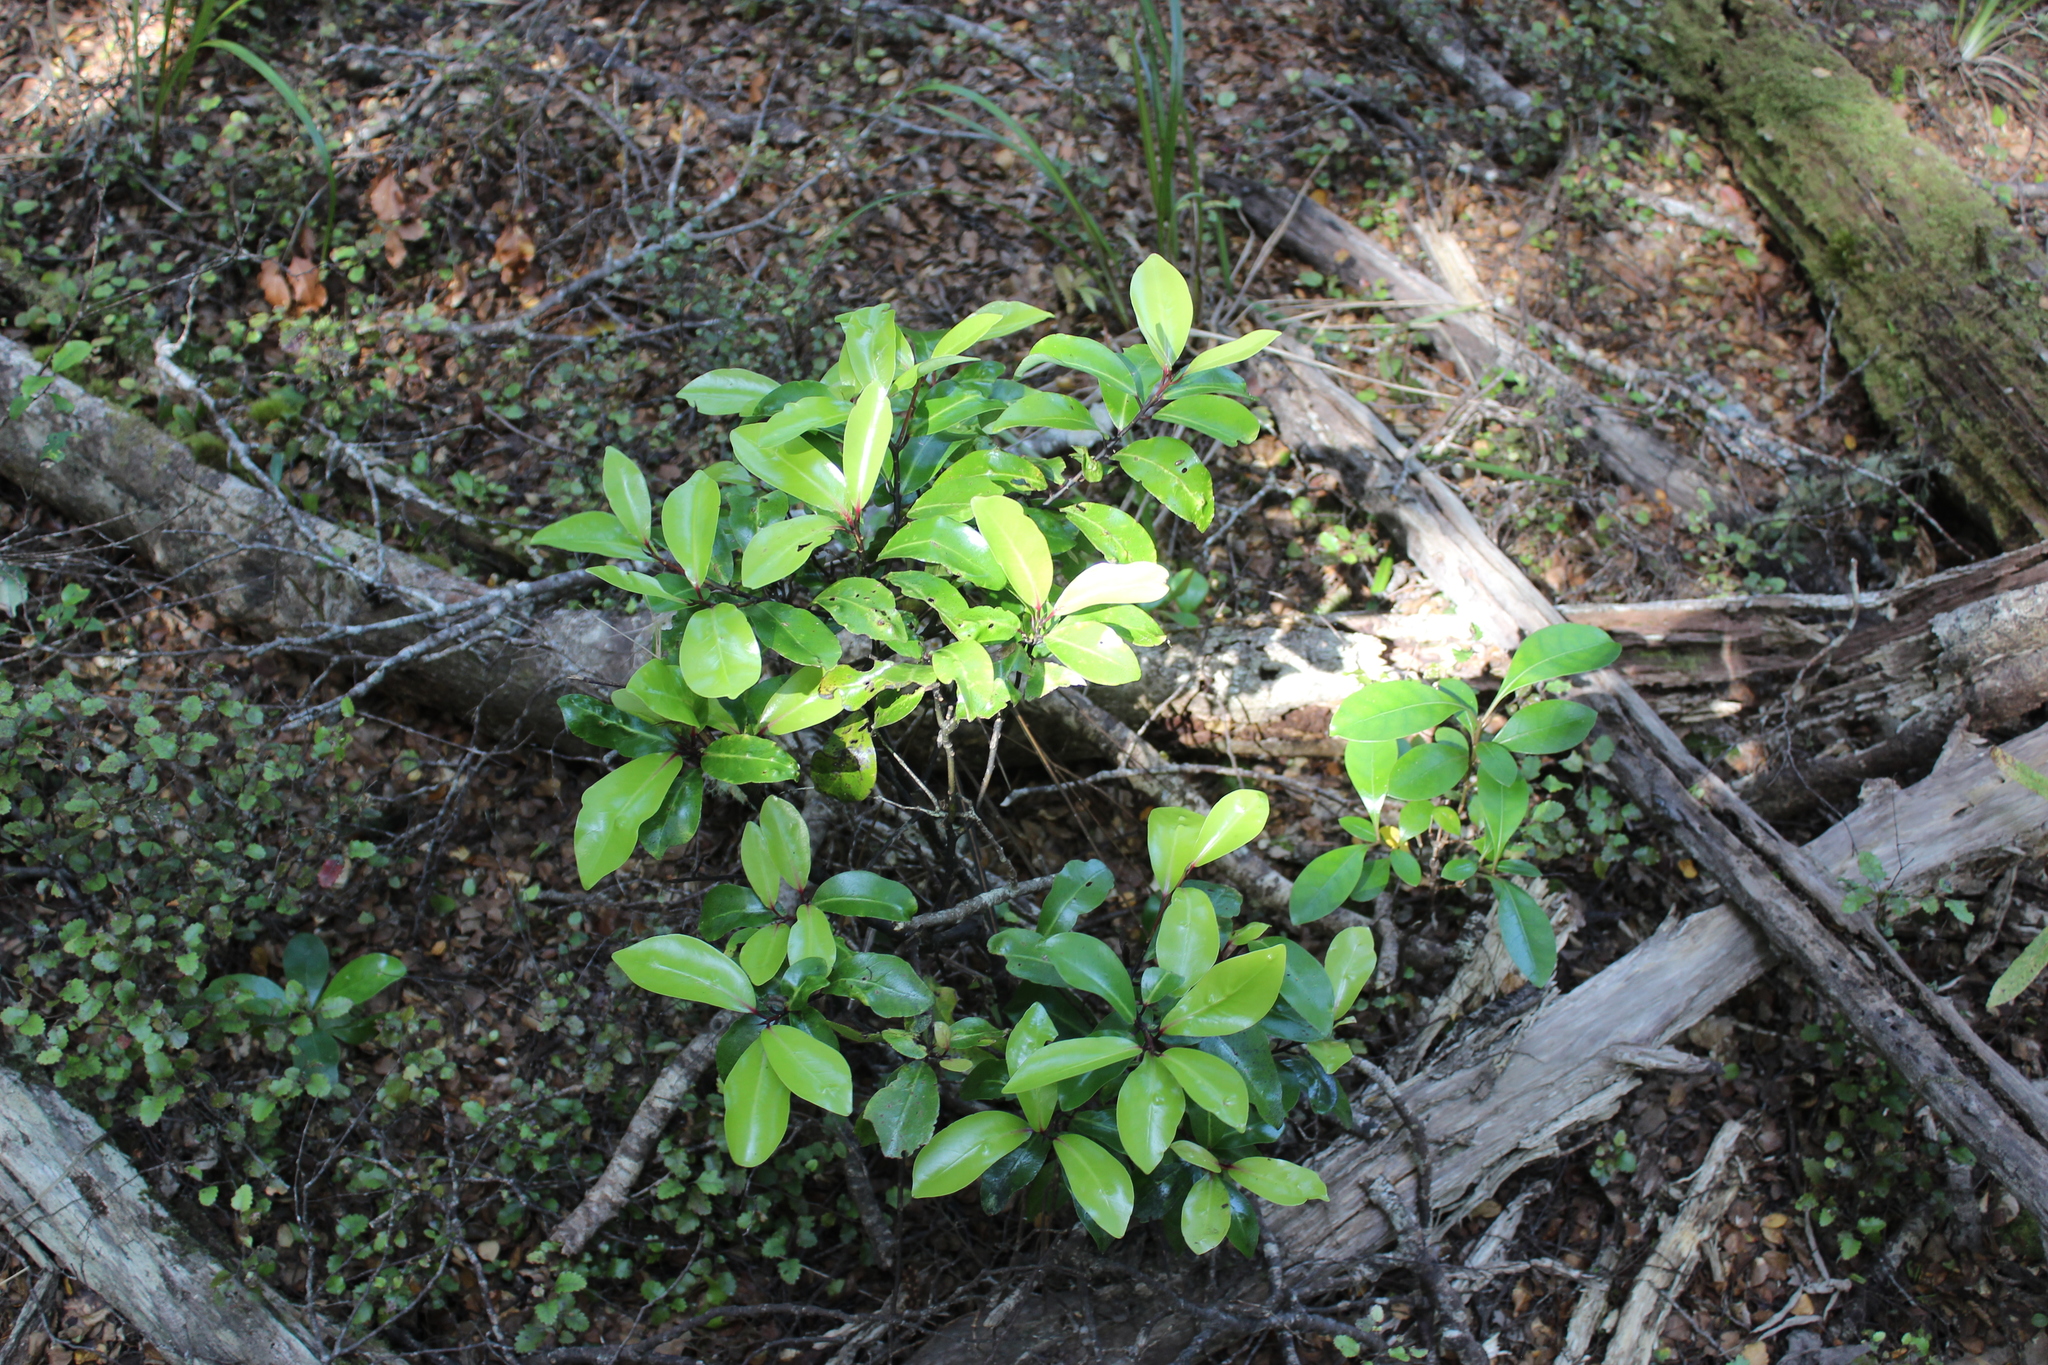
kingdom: Plantae
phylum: Tracheophyta
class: Magnoliopsida
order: Canellales
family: Winteraceae
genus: Pseudowintera
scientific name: Pseudowintera axillaris
